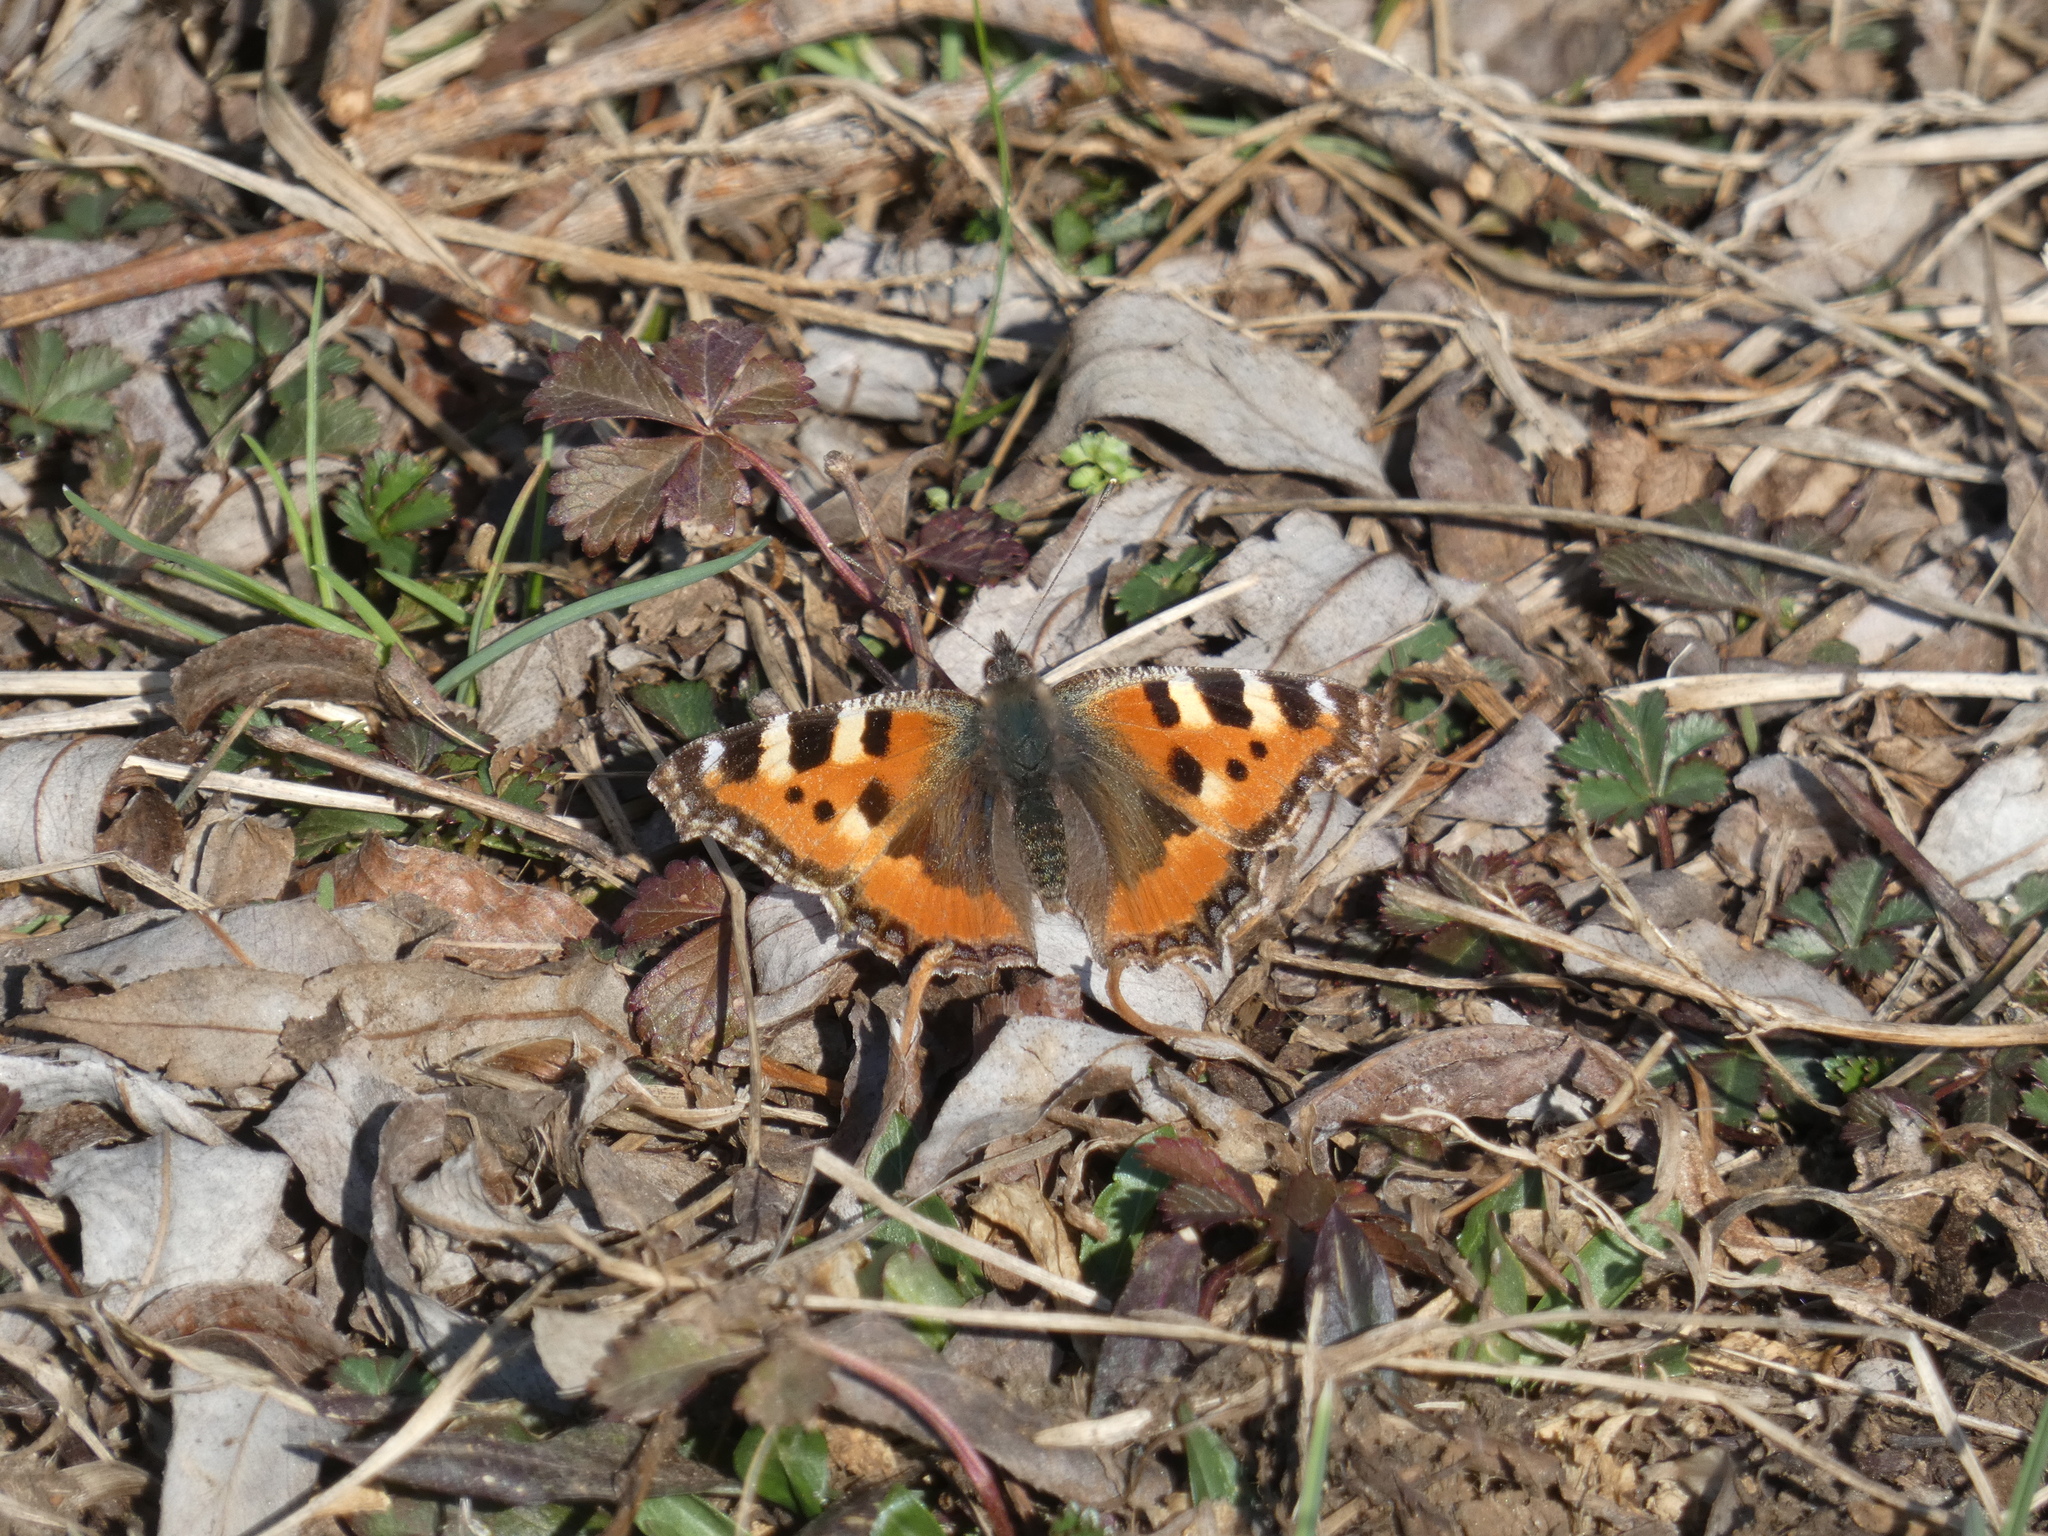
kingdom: Animalia
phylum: Arthropoda
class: Insecta
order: Lepidoptera
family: Nymphalidae
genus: Aglais
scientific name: Aglais urticae
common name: Small tortoiseshell
